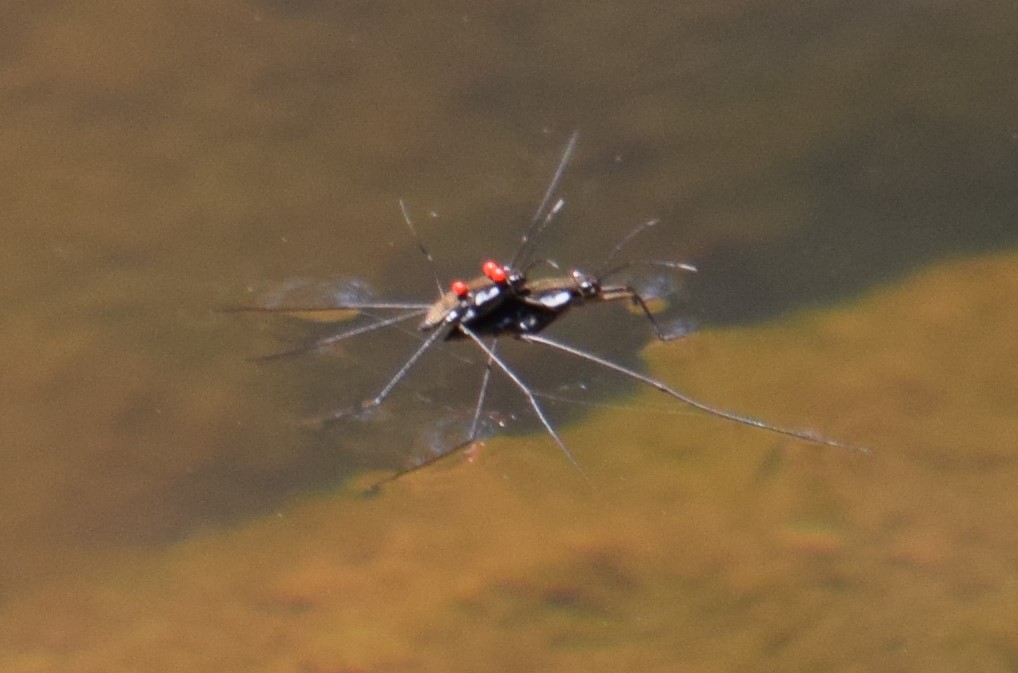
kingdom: Animalia
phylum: Arthropoda
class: Insecta
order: Hemiptera
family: Gerridae
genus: Tenagogerris
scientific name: Tenagogerris euphrosyne
